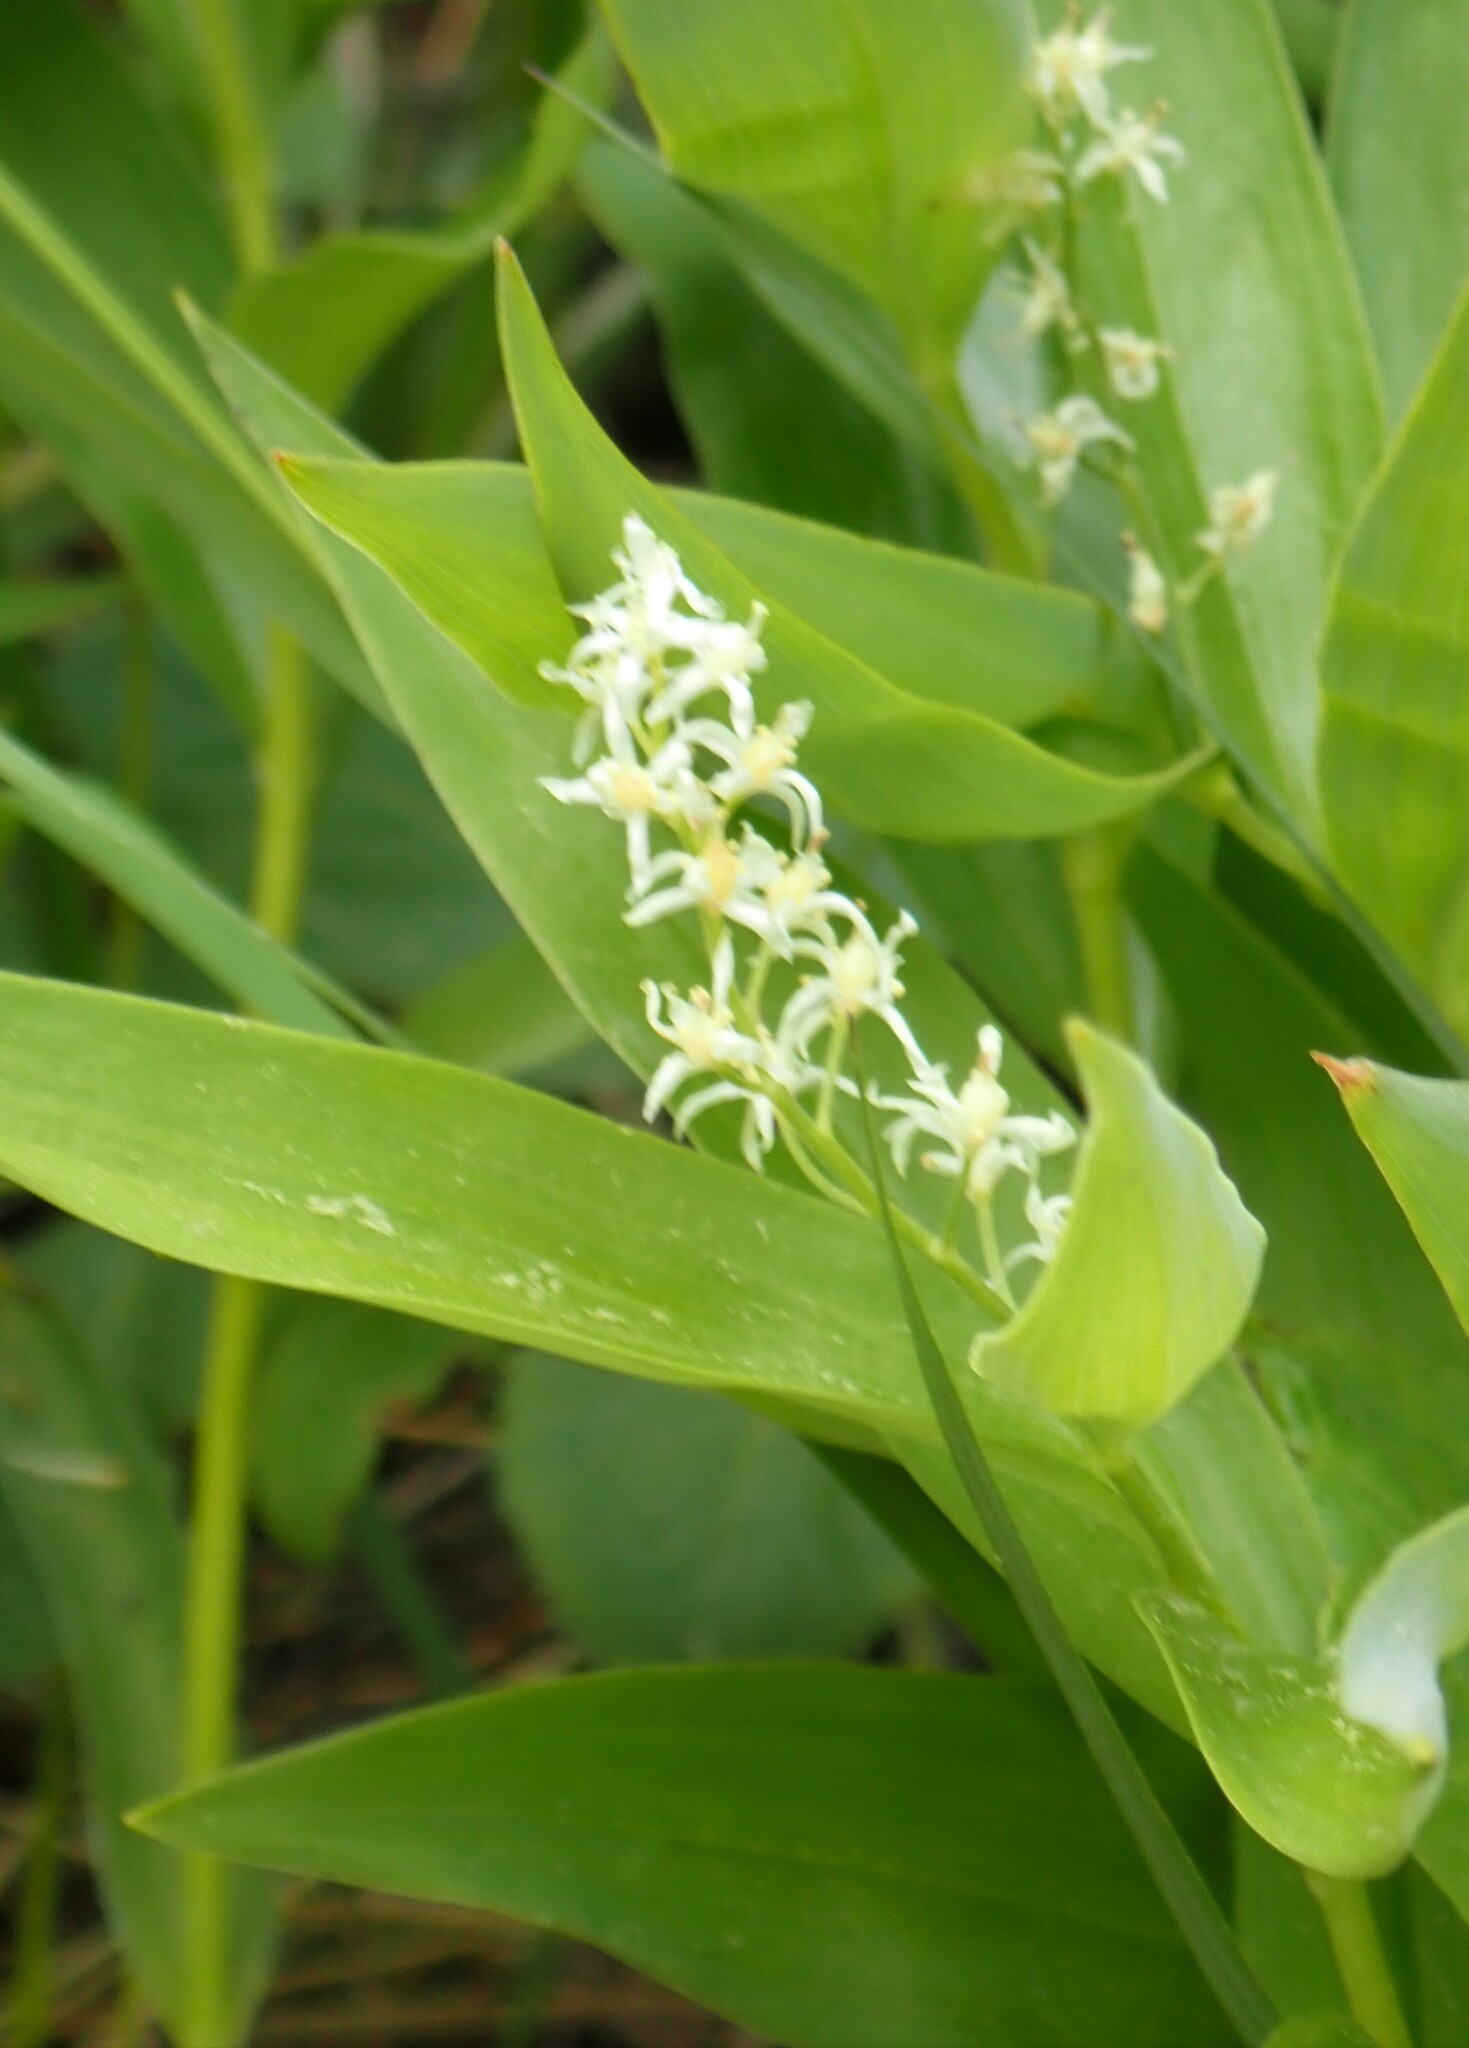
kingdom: Plantae
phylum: Tracheophyta
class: Liliopsida
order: Asparagales
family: Asparagaceae
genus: Maianthemum
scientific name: Maianthemum stellatum
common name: Little false solomon's seal
